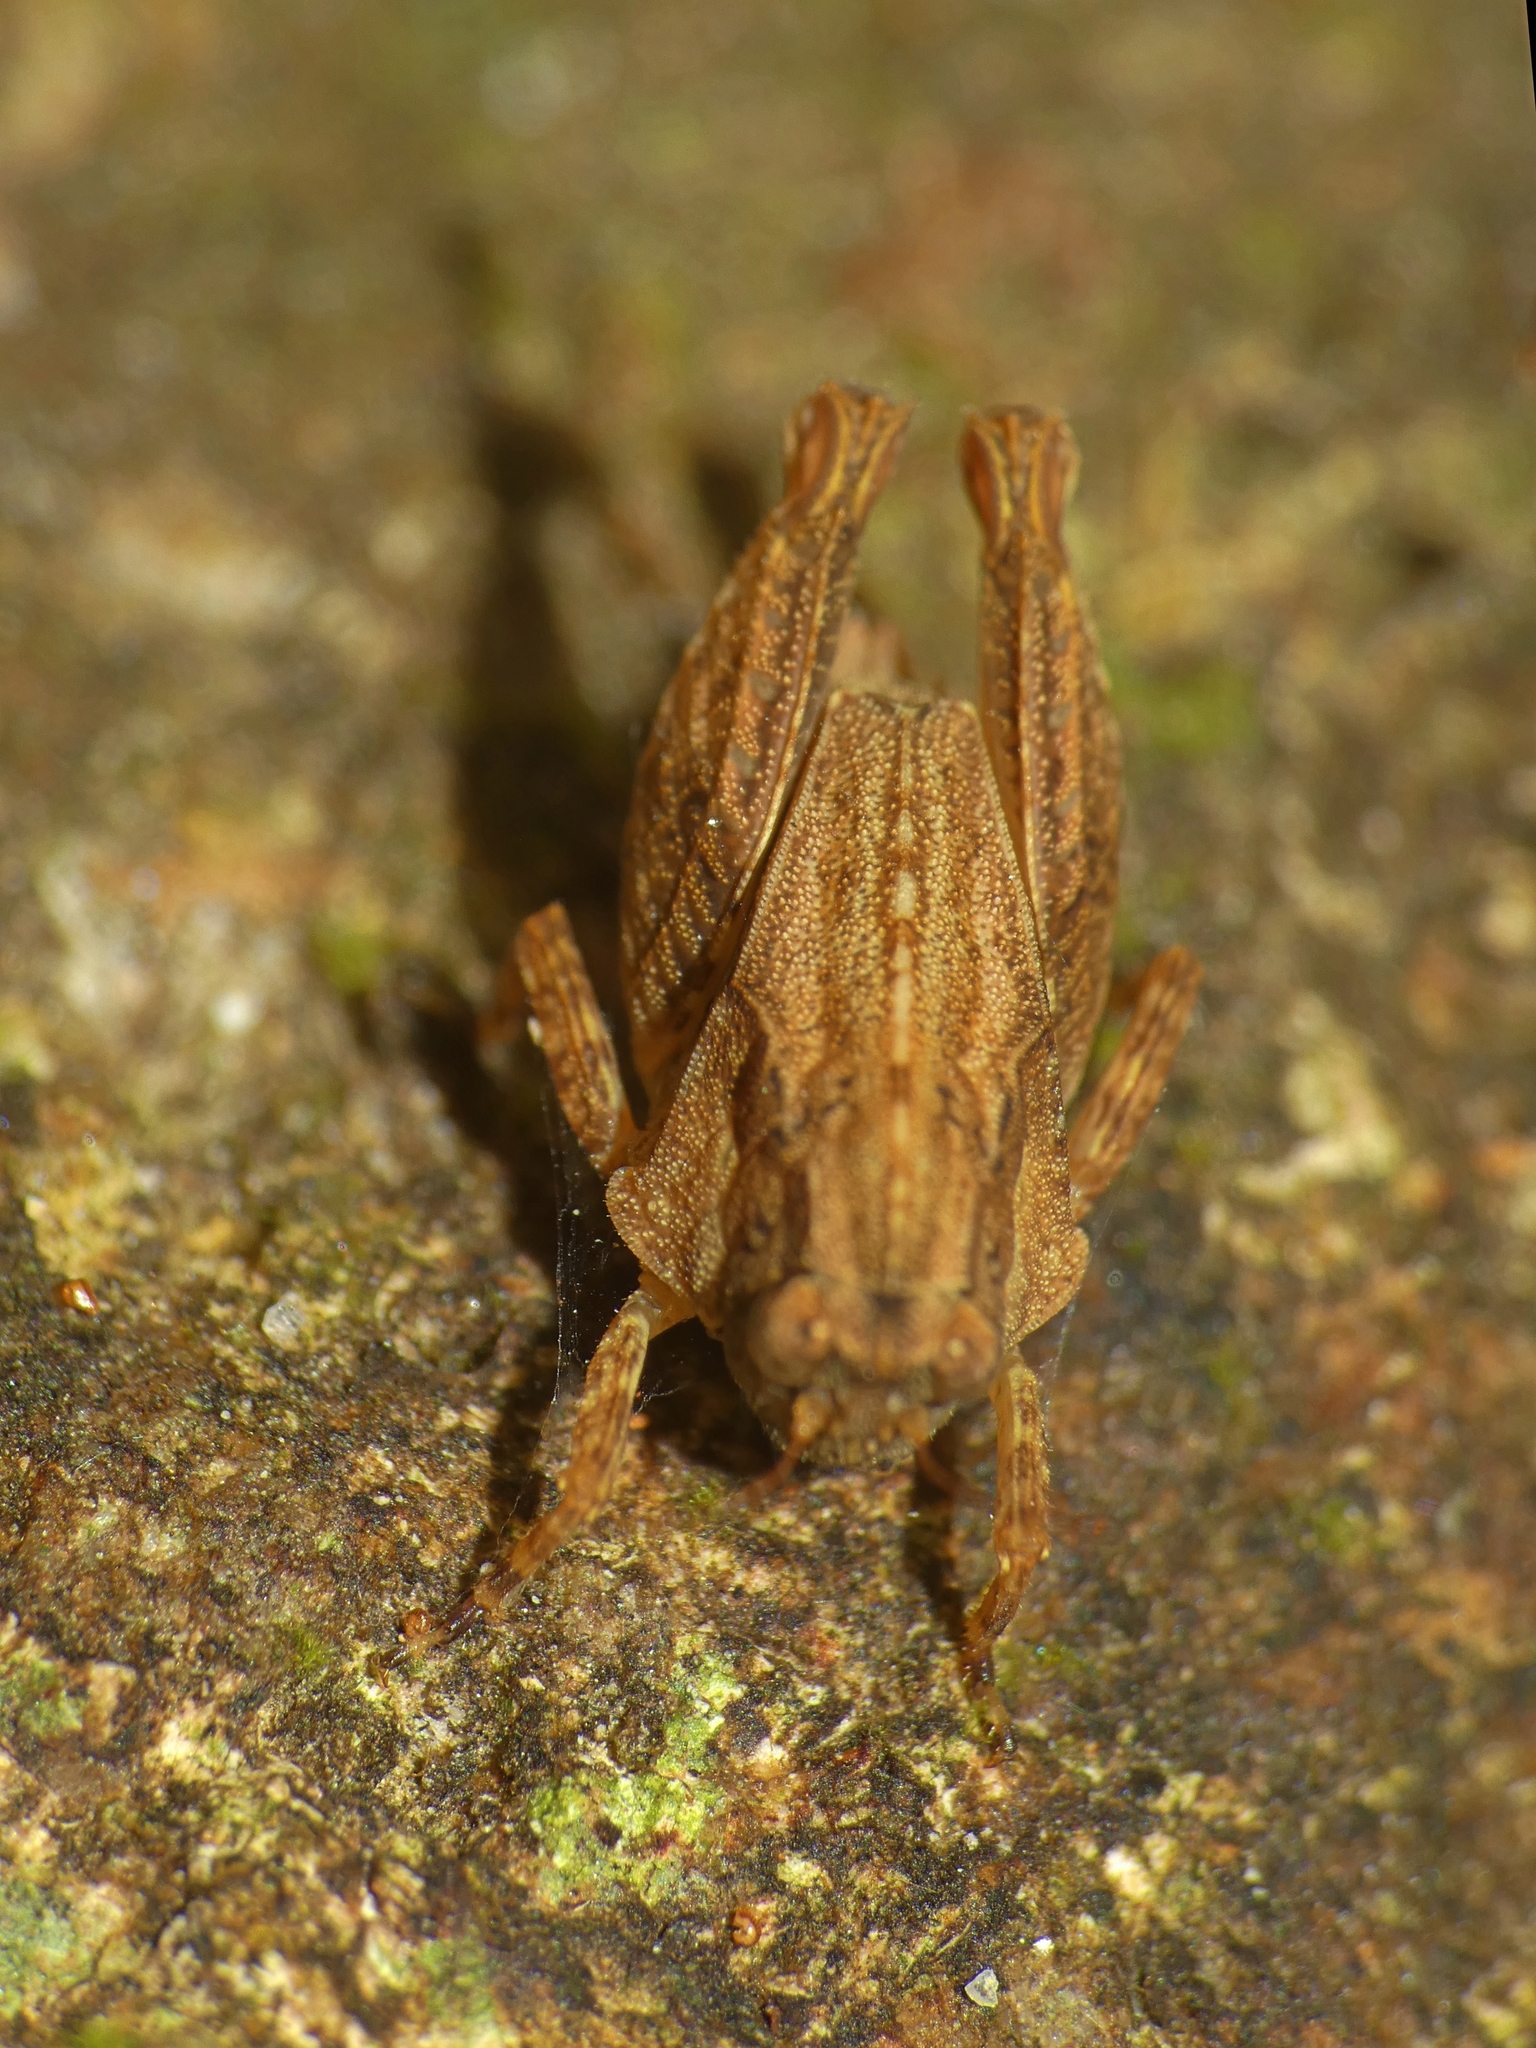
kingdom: Animalia
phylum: Arthropoda
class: Insecta
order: Orthoptera
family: Tetrigidae
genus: Anaselina
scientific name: Anaselina minor
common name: Tiny helmed groundhopper
